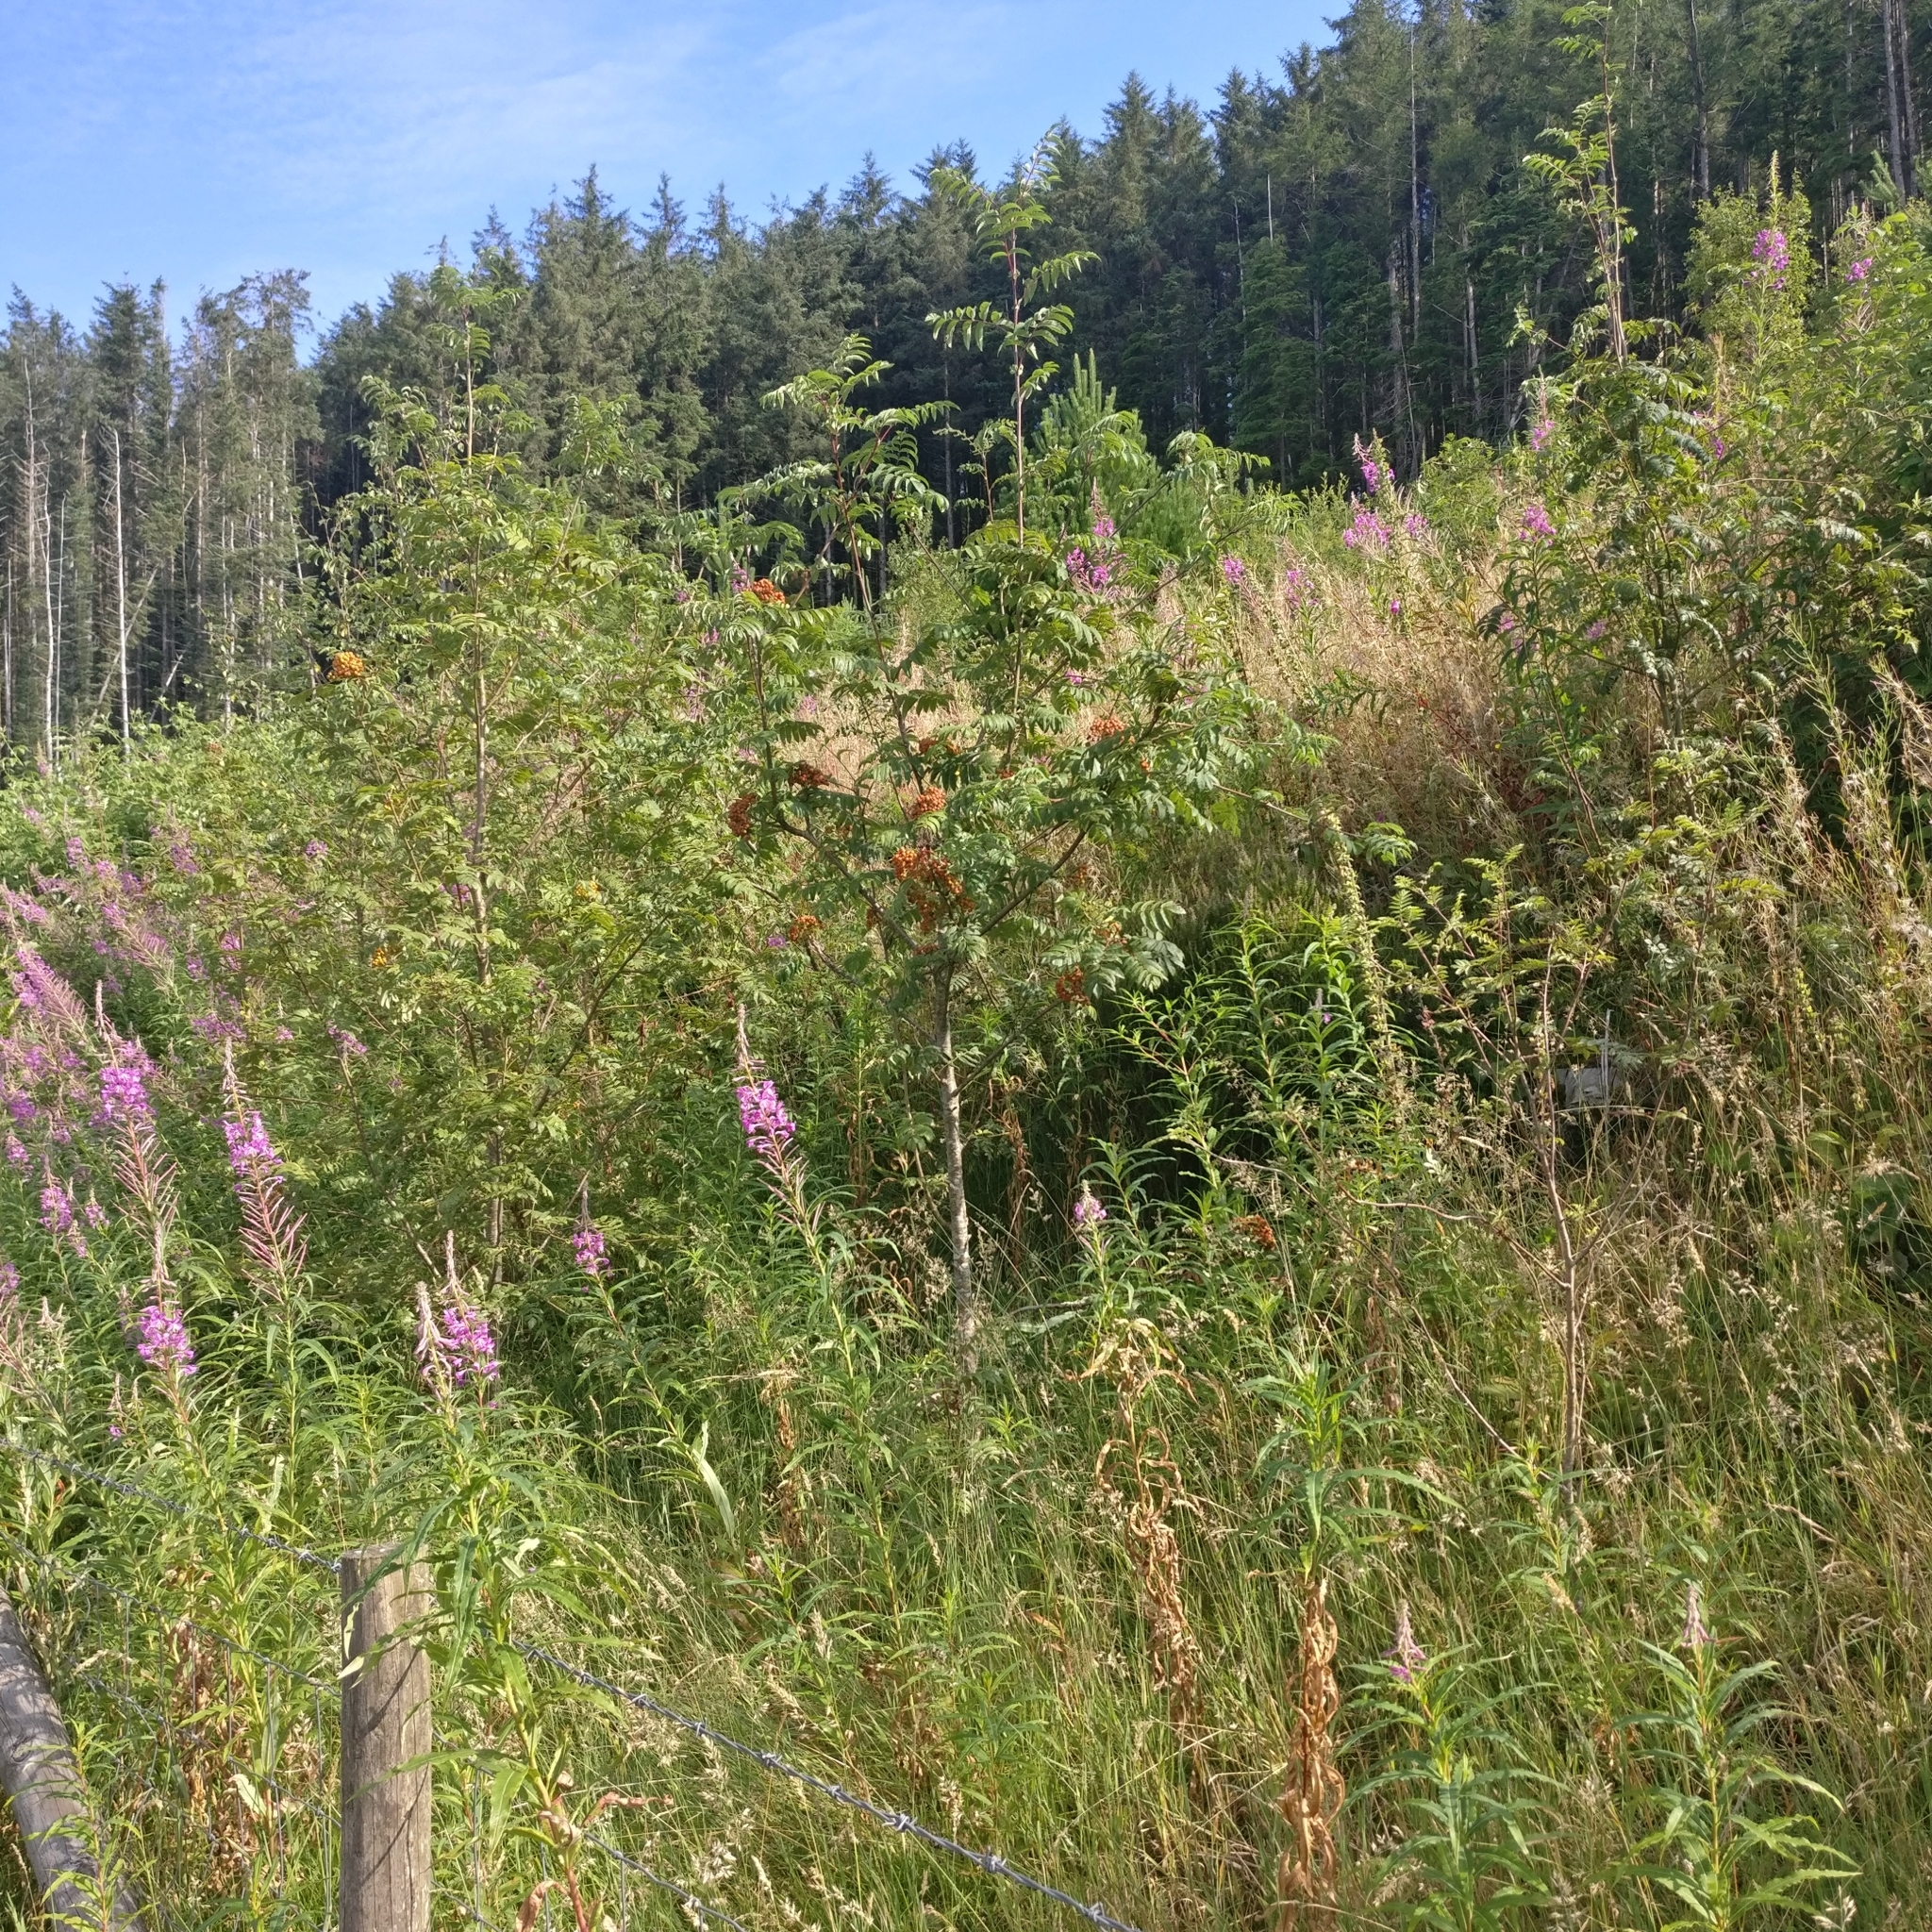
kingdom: Plantae
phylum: Tracheophyta
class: Magnoliopsida
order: Rosales
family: Rosaceae
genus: Sorbus
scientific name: Sorbus aucuparia
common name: Rowan
